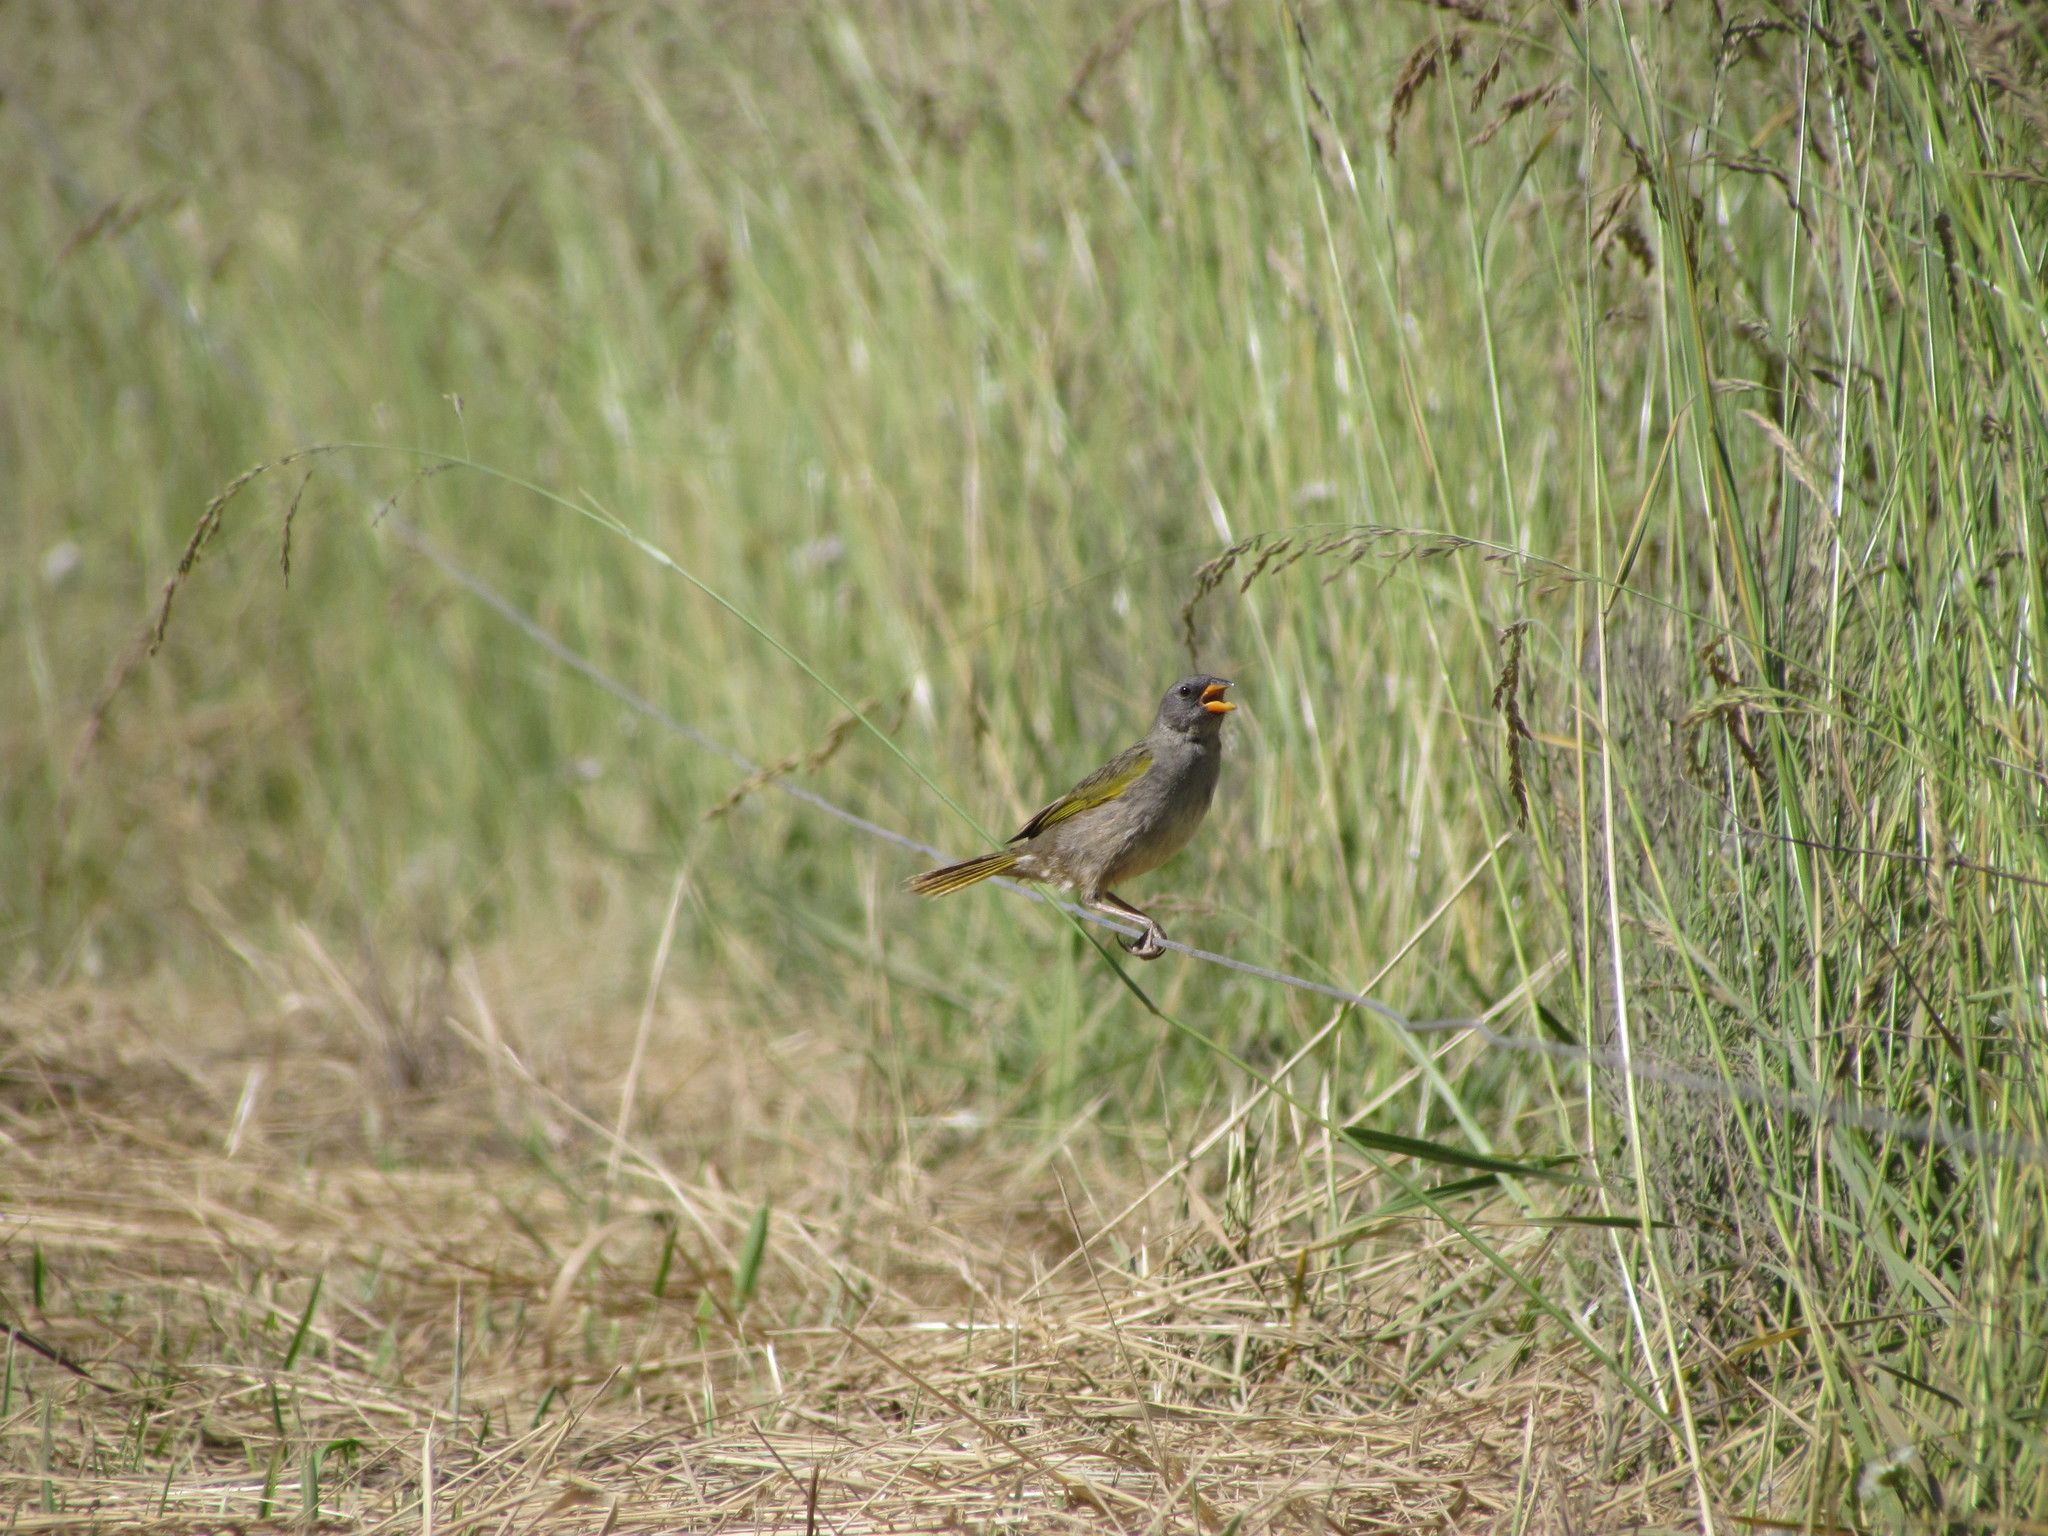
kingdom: Animalia
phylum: Chordata
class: Aves
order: Passeriformes
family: Thraupidae
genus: Embernagra
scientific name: Embernagra platensis
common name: Pampa finch
